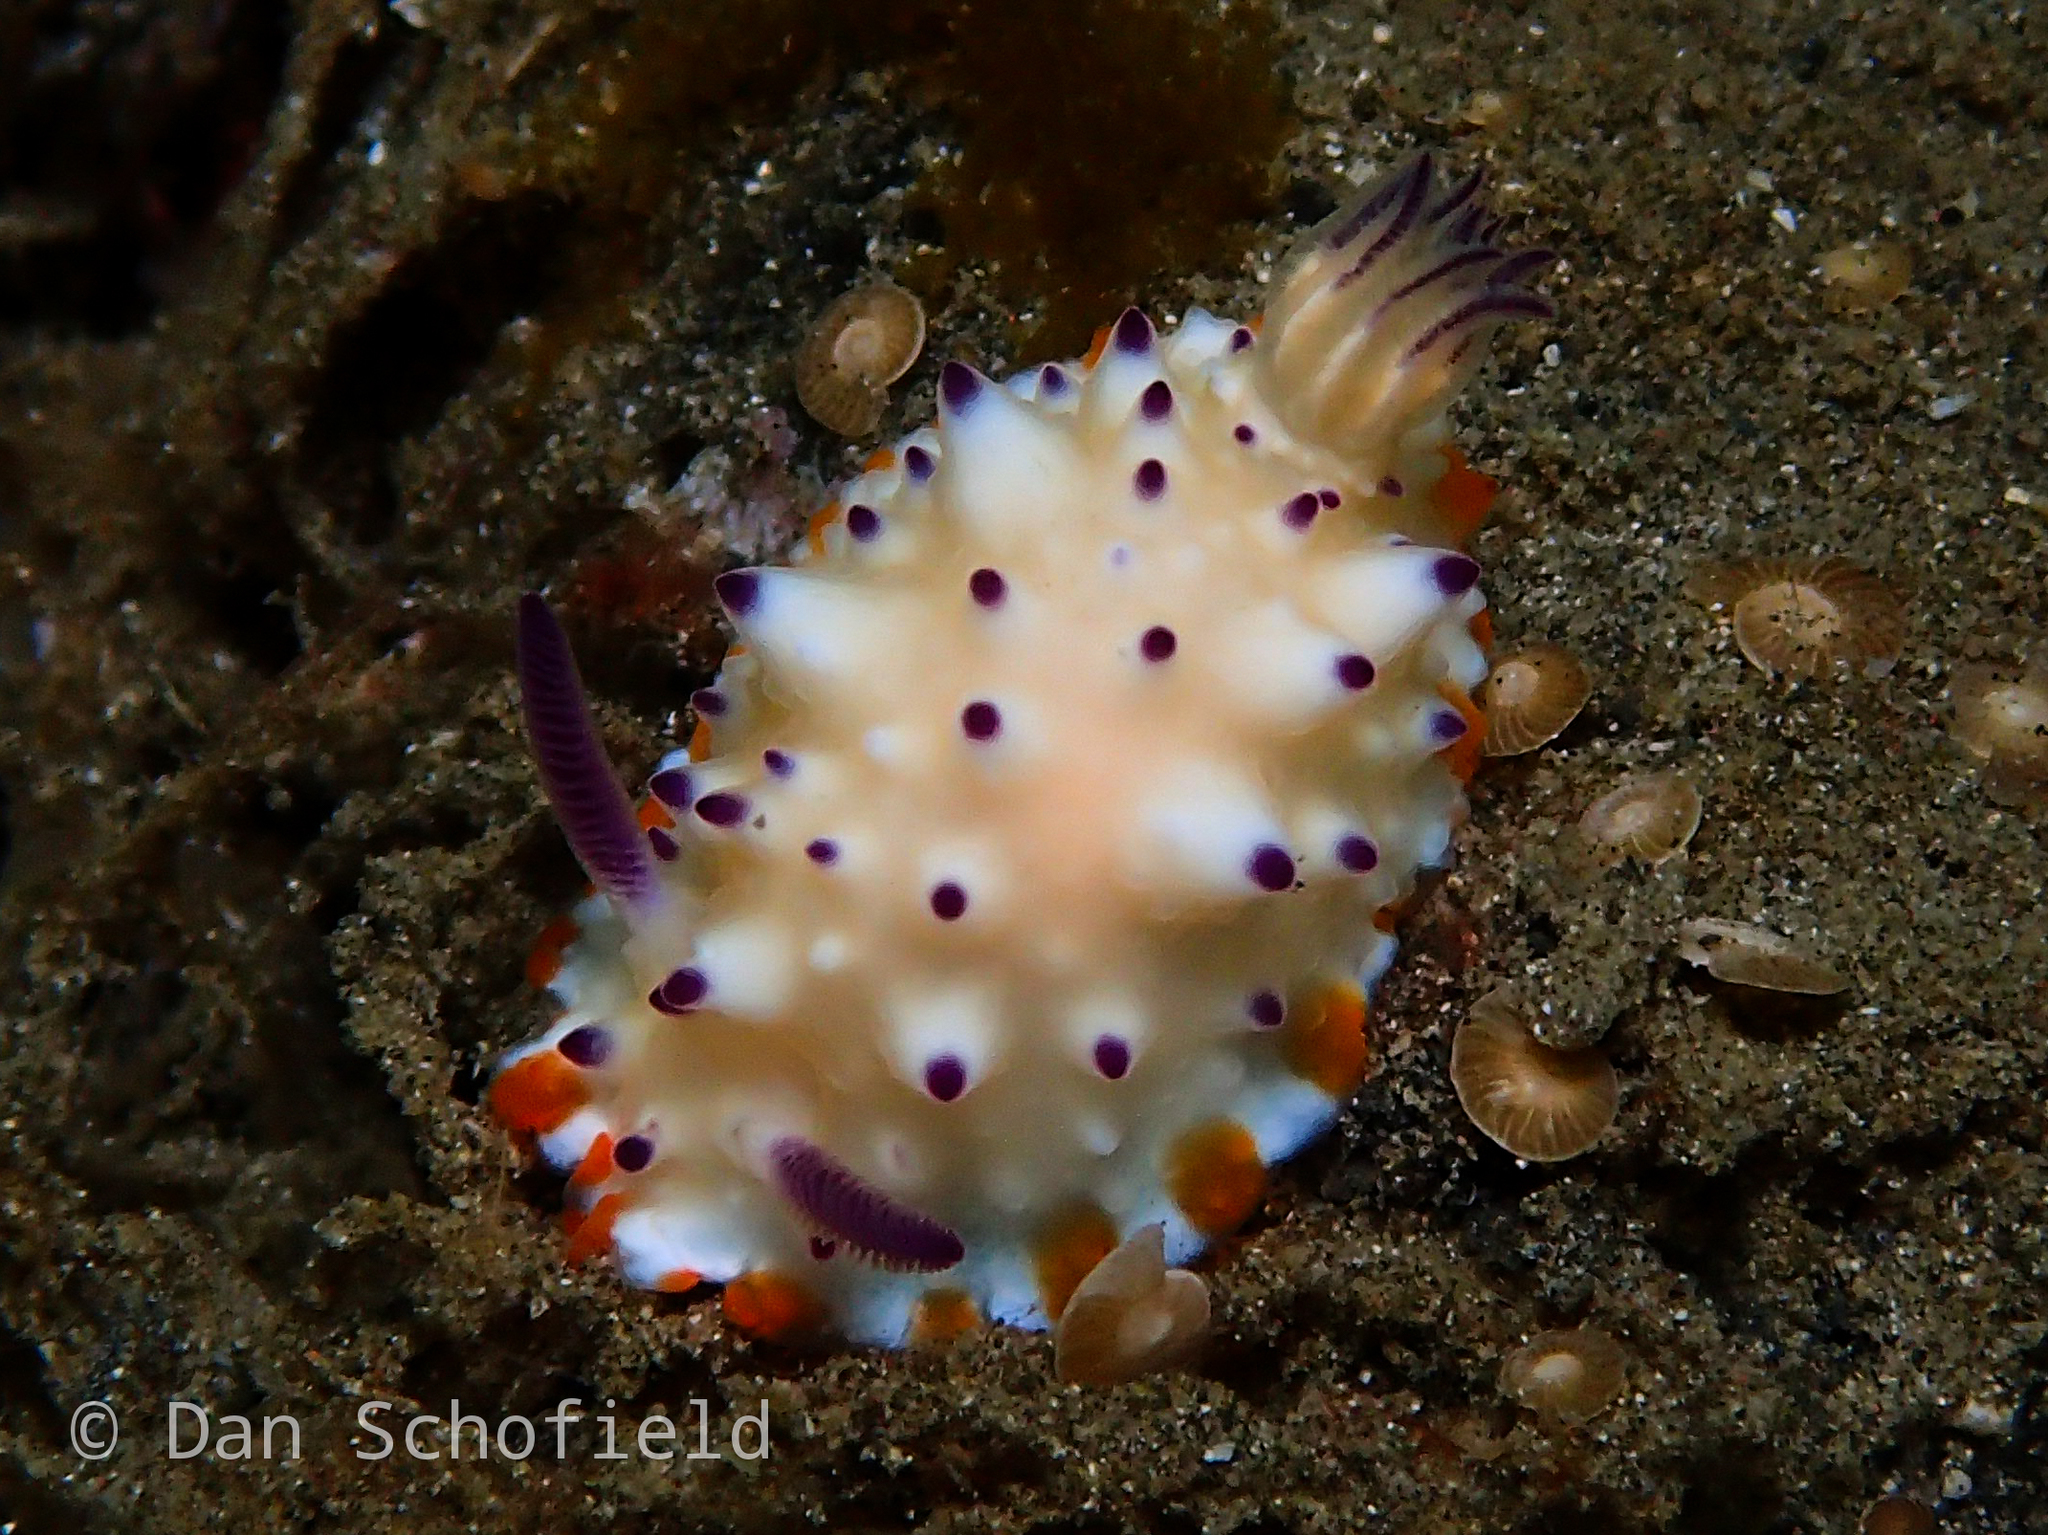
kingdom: Animalia
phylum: Mollusca
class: Gastropoda
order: Nudibranchia
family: Chromodorididae
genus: Mexichromis
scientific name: Mexichromis multituberculata
